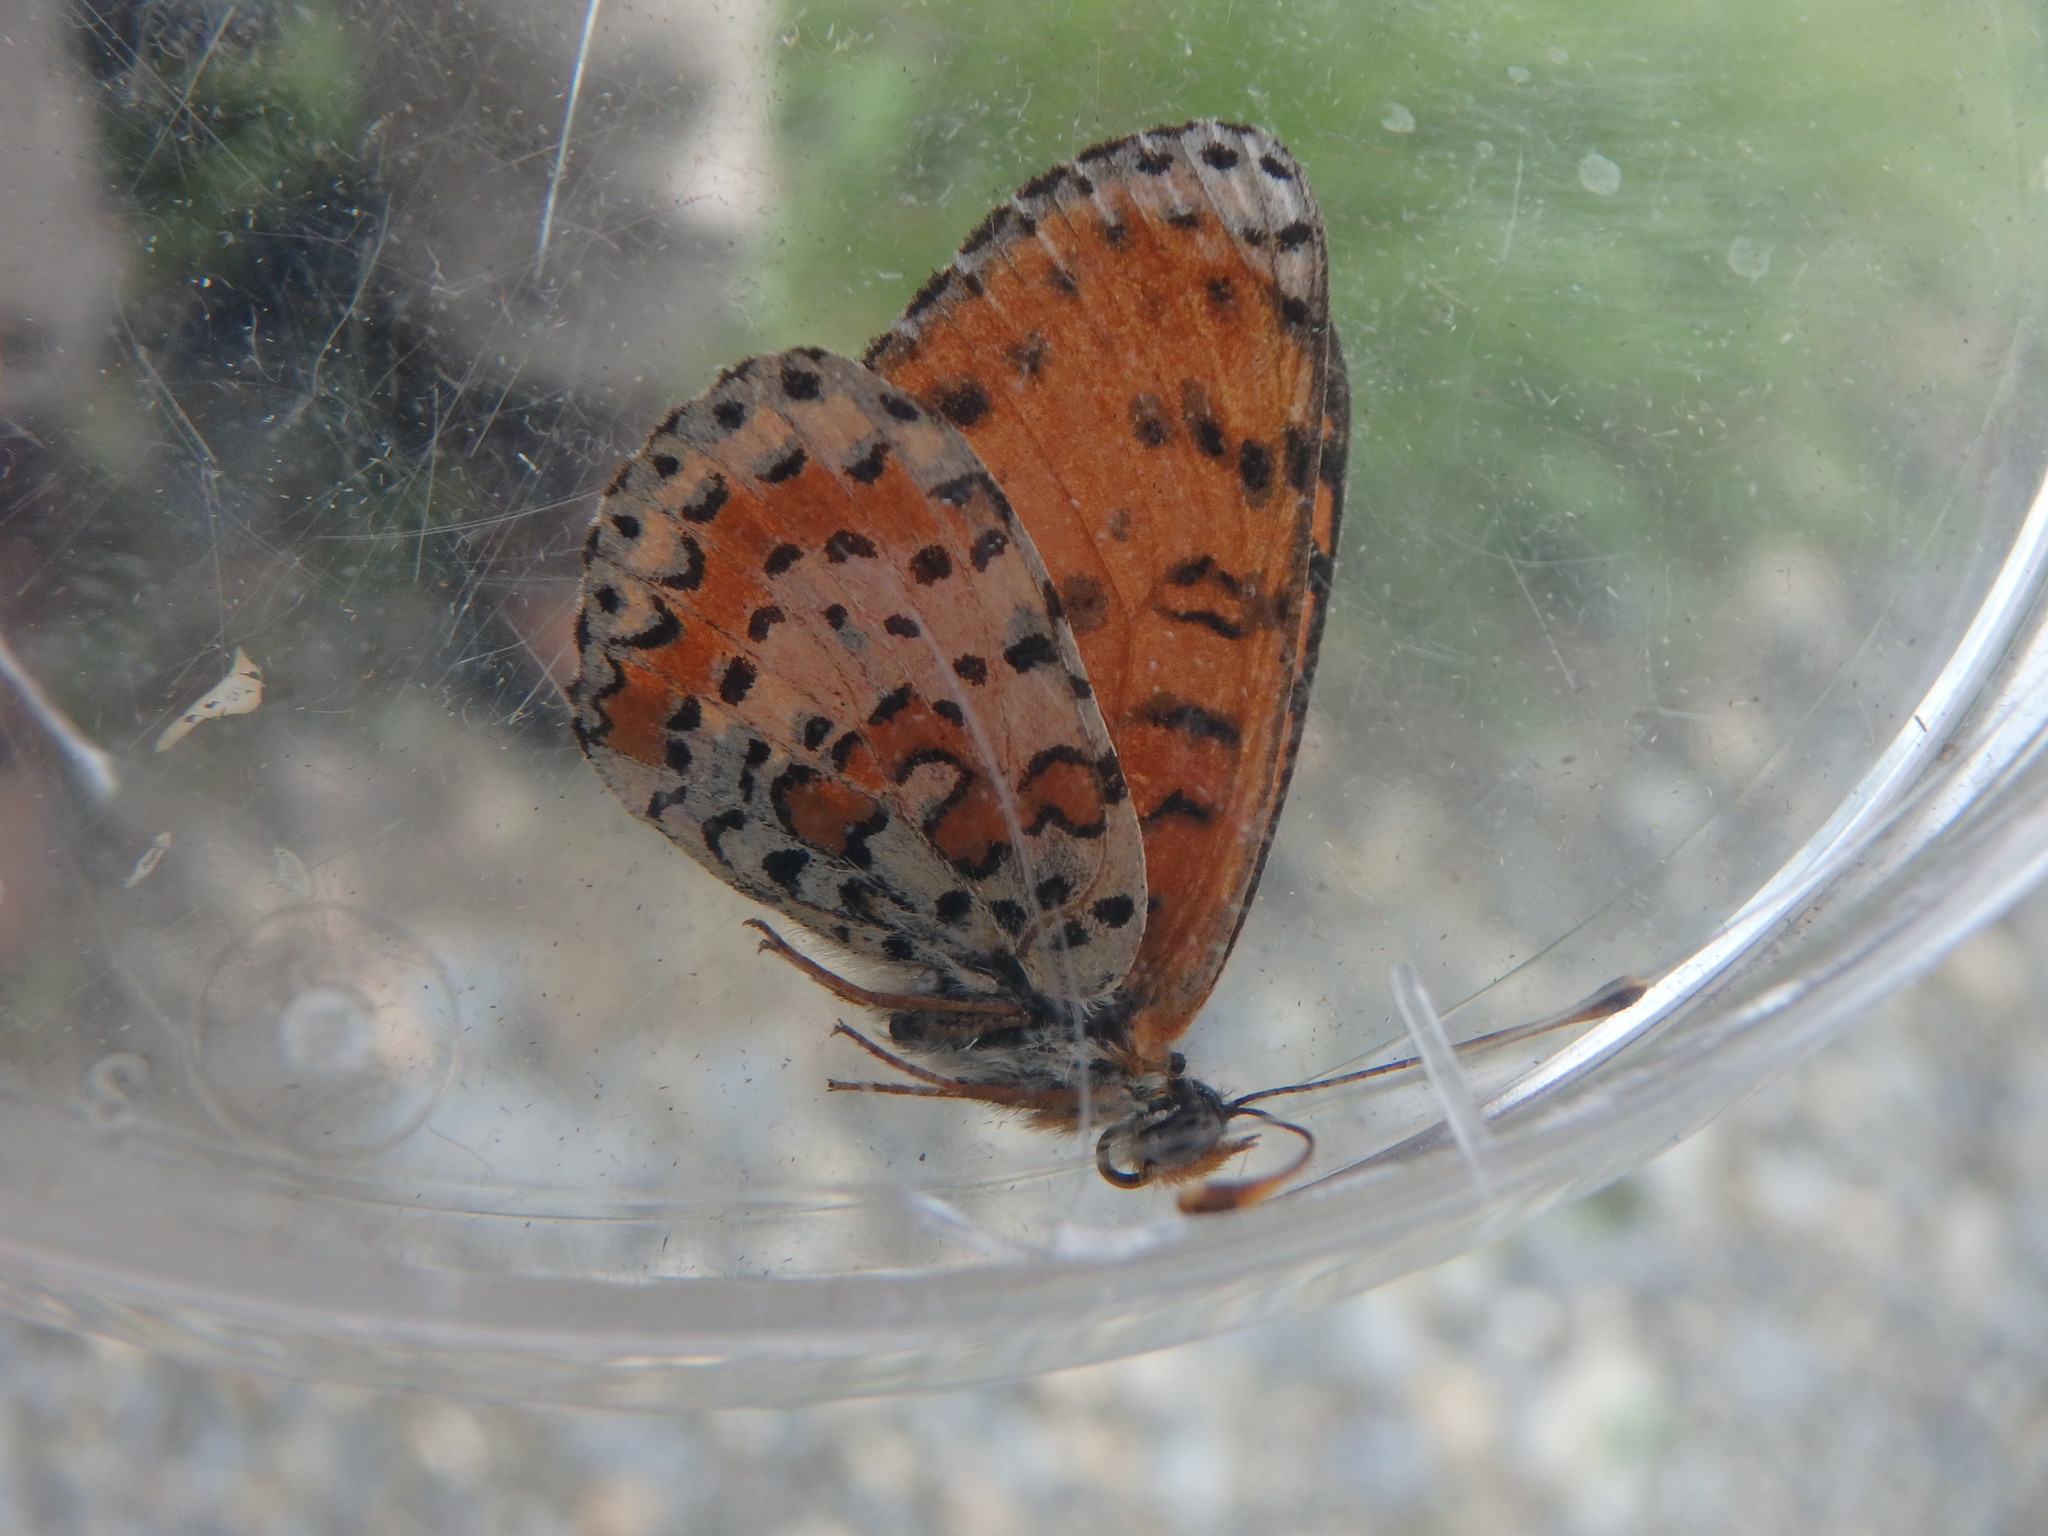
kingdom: Animalia
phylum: Arthropoda
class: Insecta
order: Lepidoptera
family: Nymphalidae
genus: Melitaea
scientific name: Melitaea didyma
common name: Spotted fritillary
